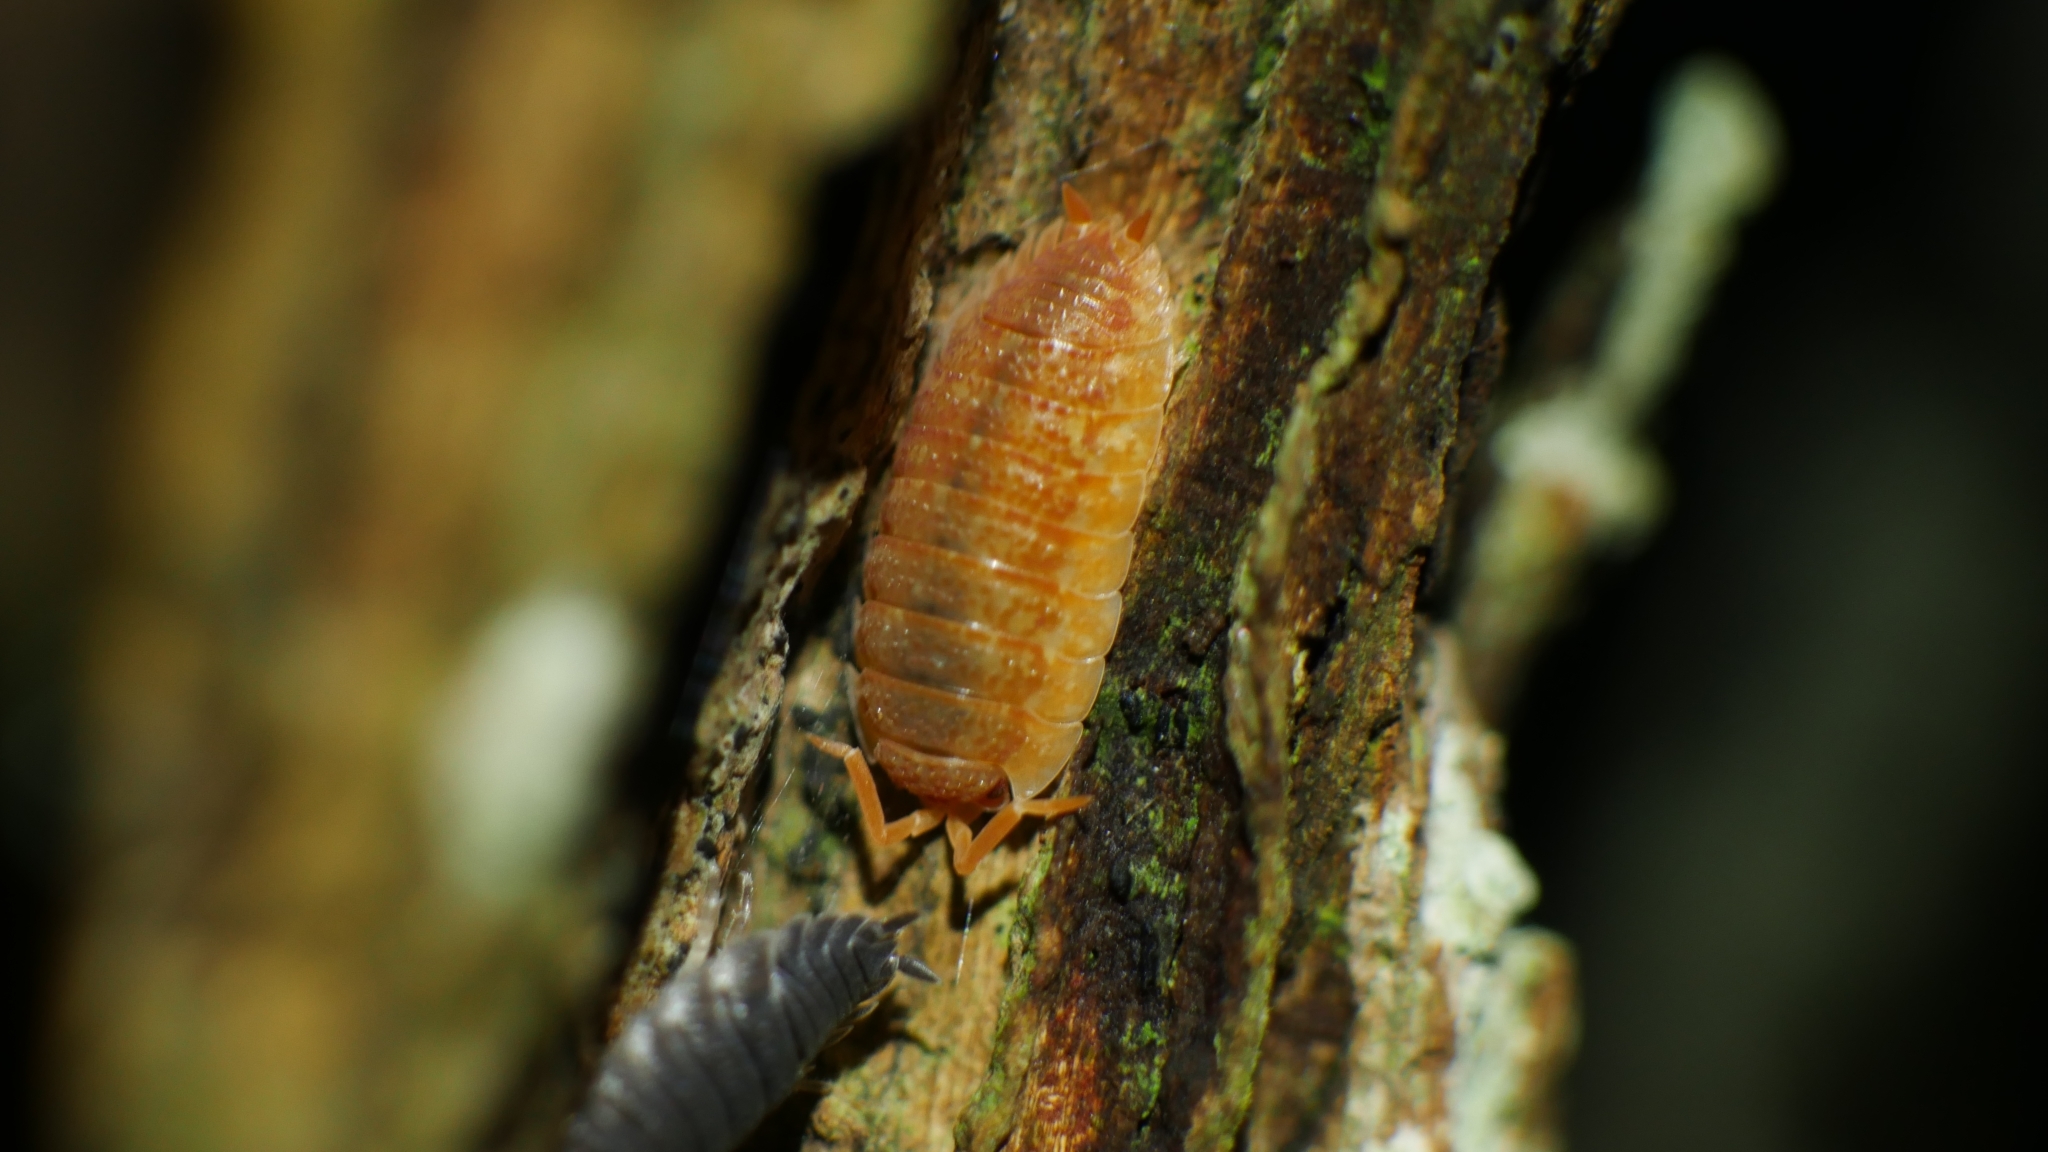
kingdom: Animalia
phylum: Arthropoda
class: Malacostraca
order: Isopoda
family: Porcellionidae
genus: Porcellio
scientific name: Porcellio scaber
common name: Common rough woodlouse
